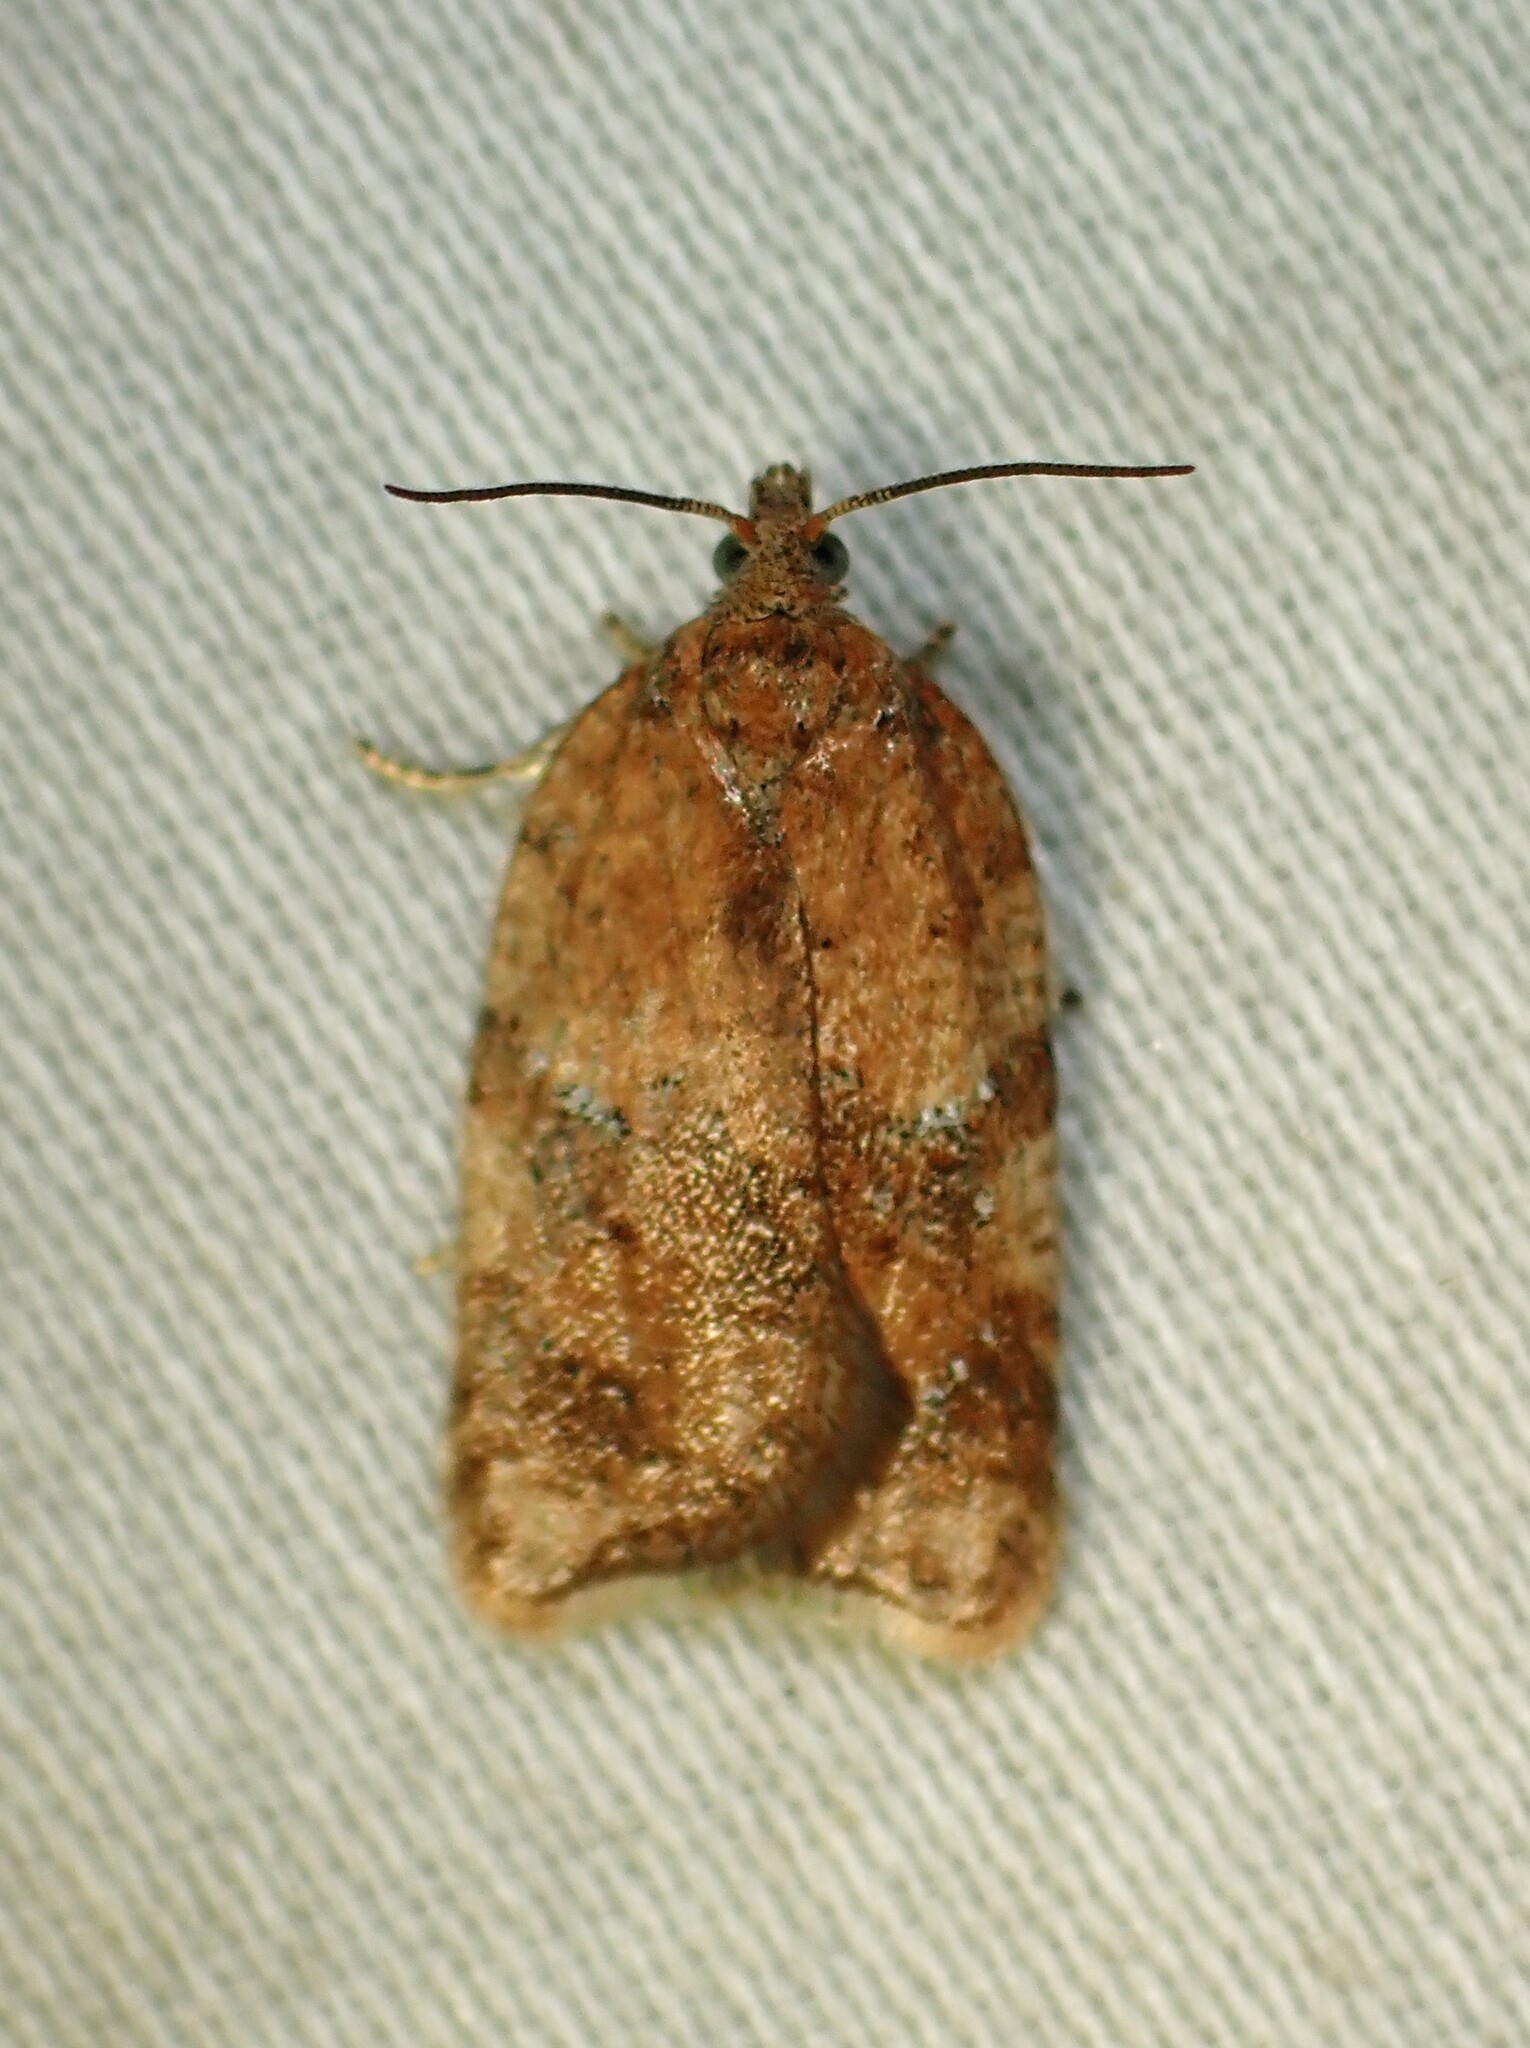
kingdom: Animalia
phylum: Arthropoda
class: Insecta
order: Lepidoptera
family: Tortricidae
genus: Acleris
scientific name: Acleris stadiana
